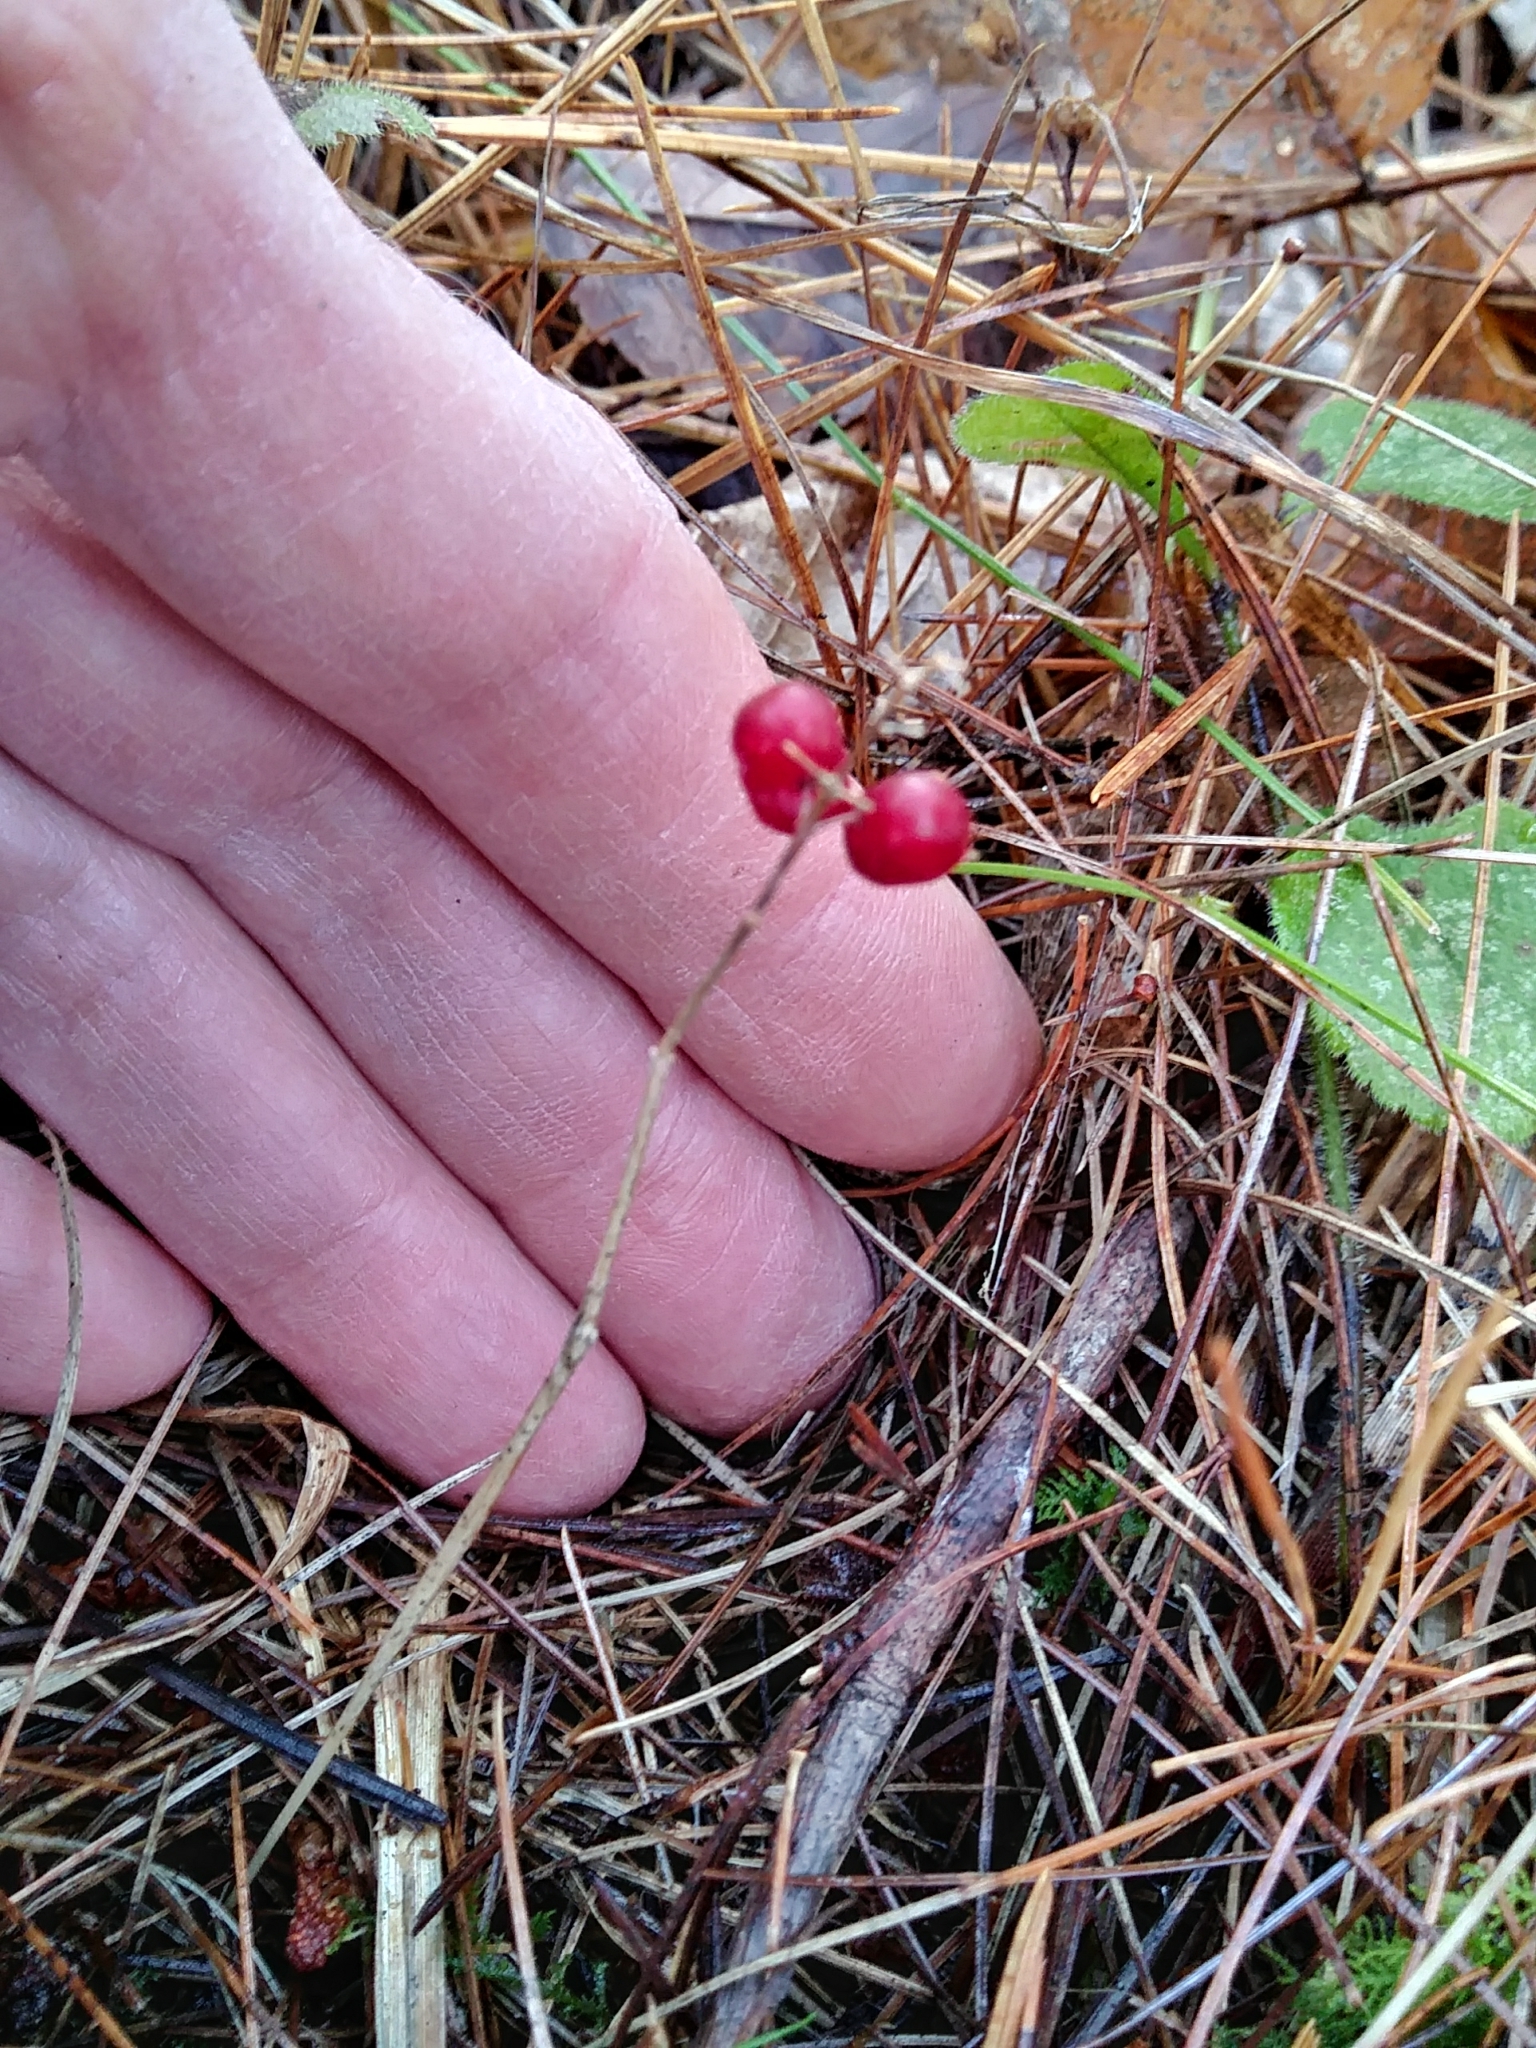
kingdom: Plantae
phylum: Tracheophyta
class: Liliopsida
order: Asparagales
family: Asparagaceae
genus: Maianthemum
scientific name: Maianthemum canadense
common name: False lily-of-the-valley
